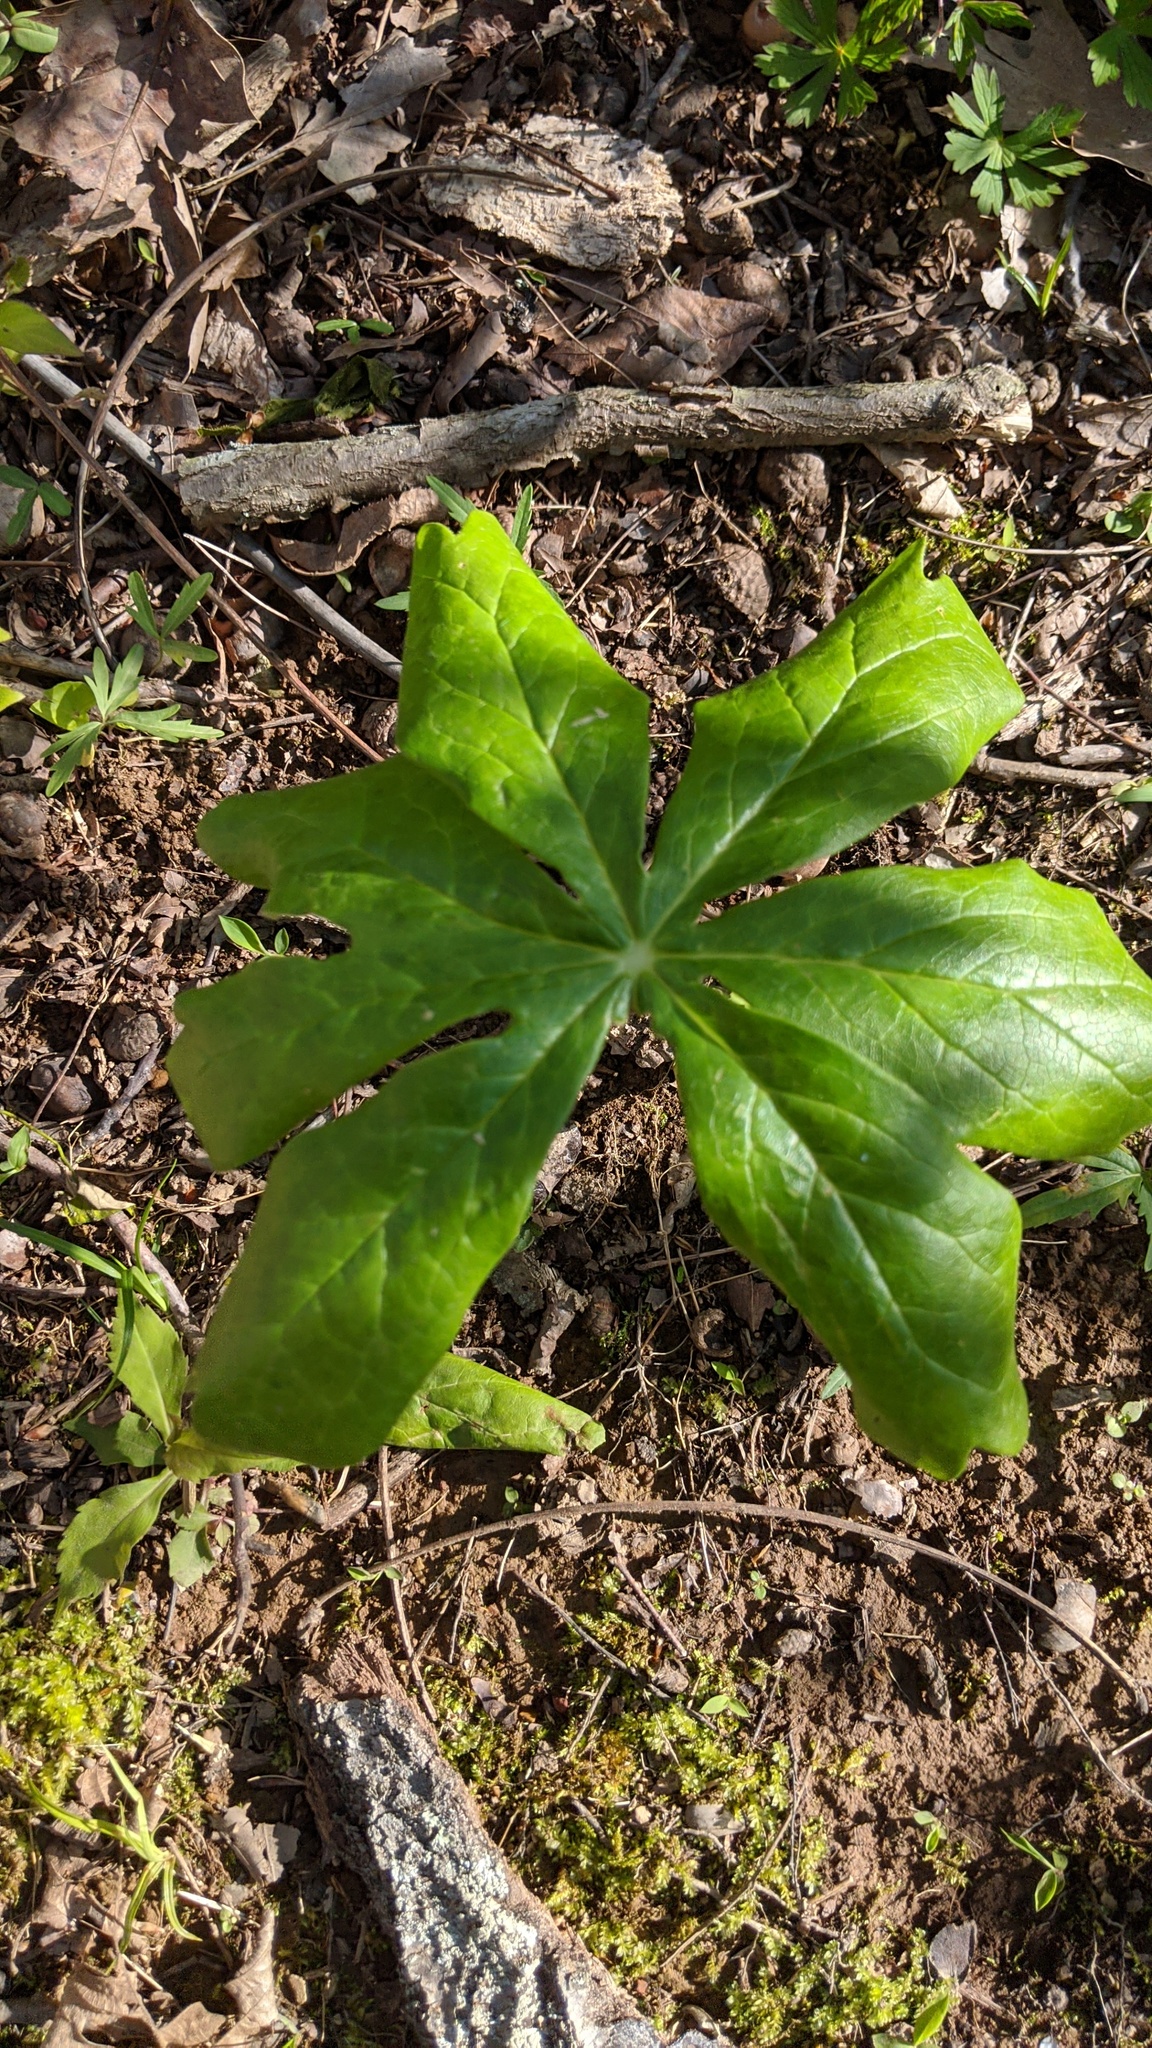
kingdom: Plantae
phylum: Tracheophyta
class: Magnoliopsida
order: Ranunculales
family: Berberidaceae
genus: Podophyllum
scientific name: Podophyllum peltatum
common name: Wild mandrake
